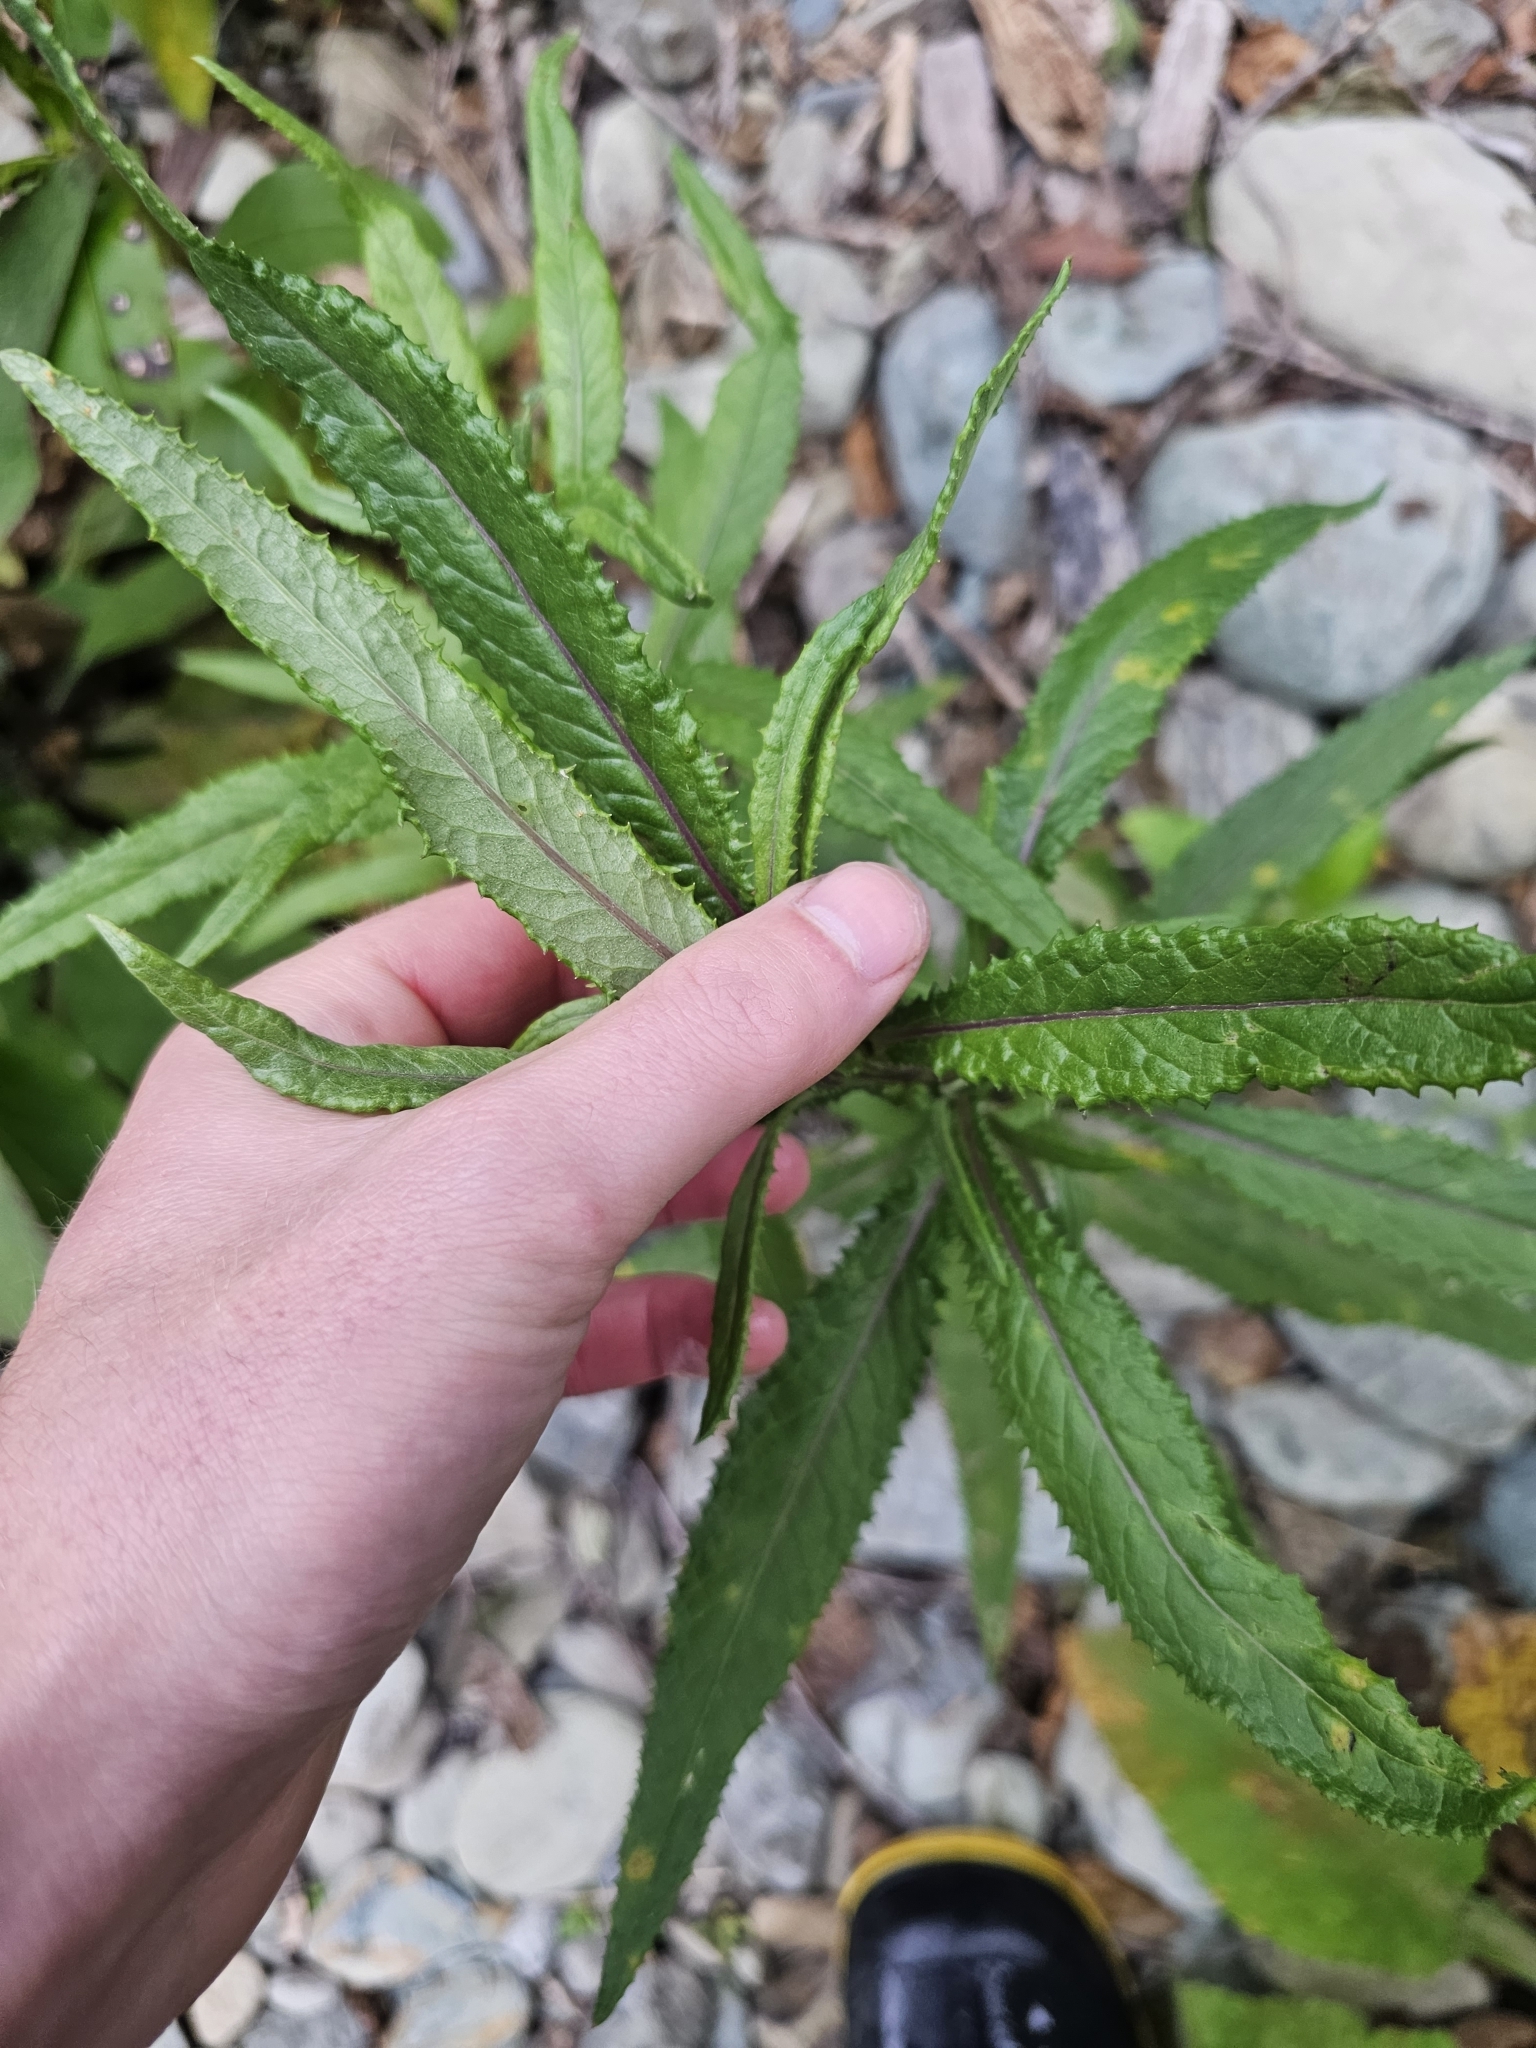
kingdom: Plantae
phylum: Tracheophyta
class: Magnoliopsida
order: Asterales
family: Asteraceae
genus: Senecio
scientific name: Senecio minimus
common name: Toothed fireweed
